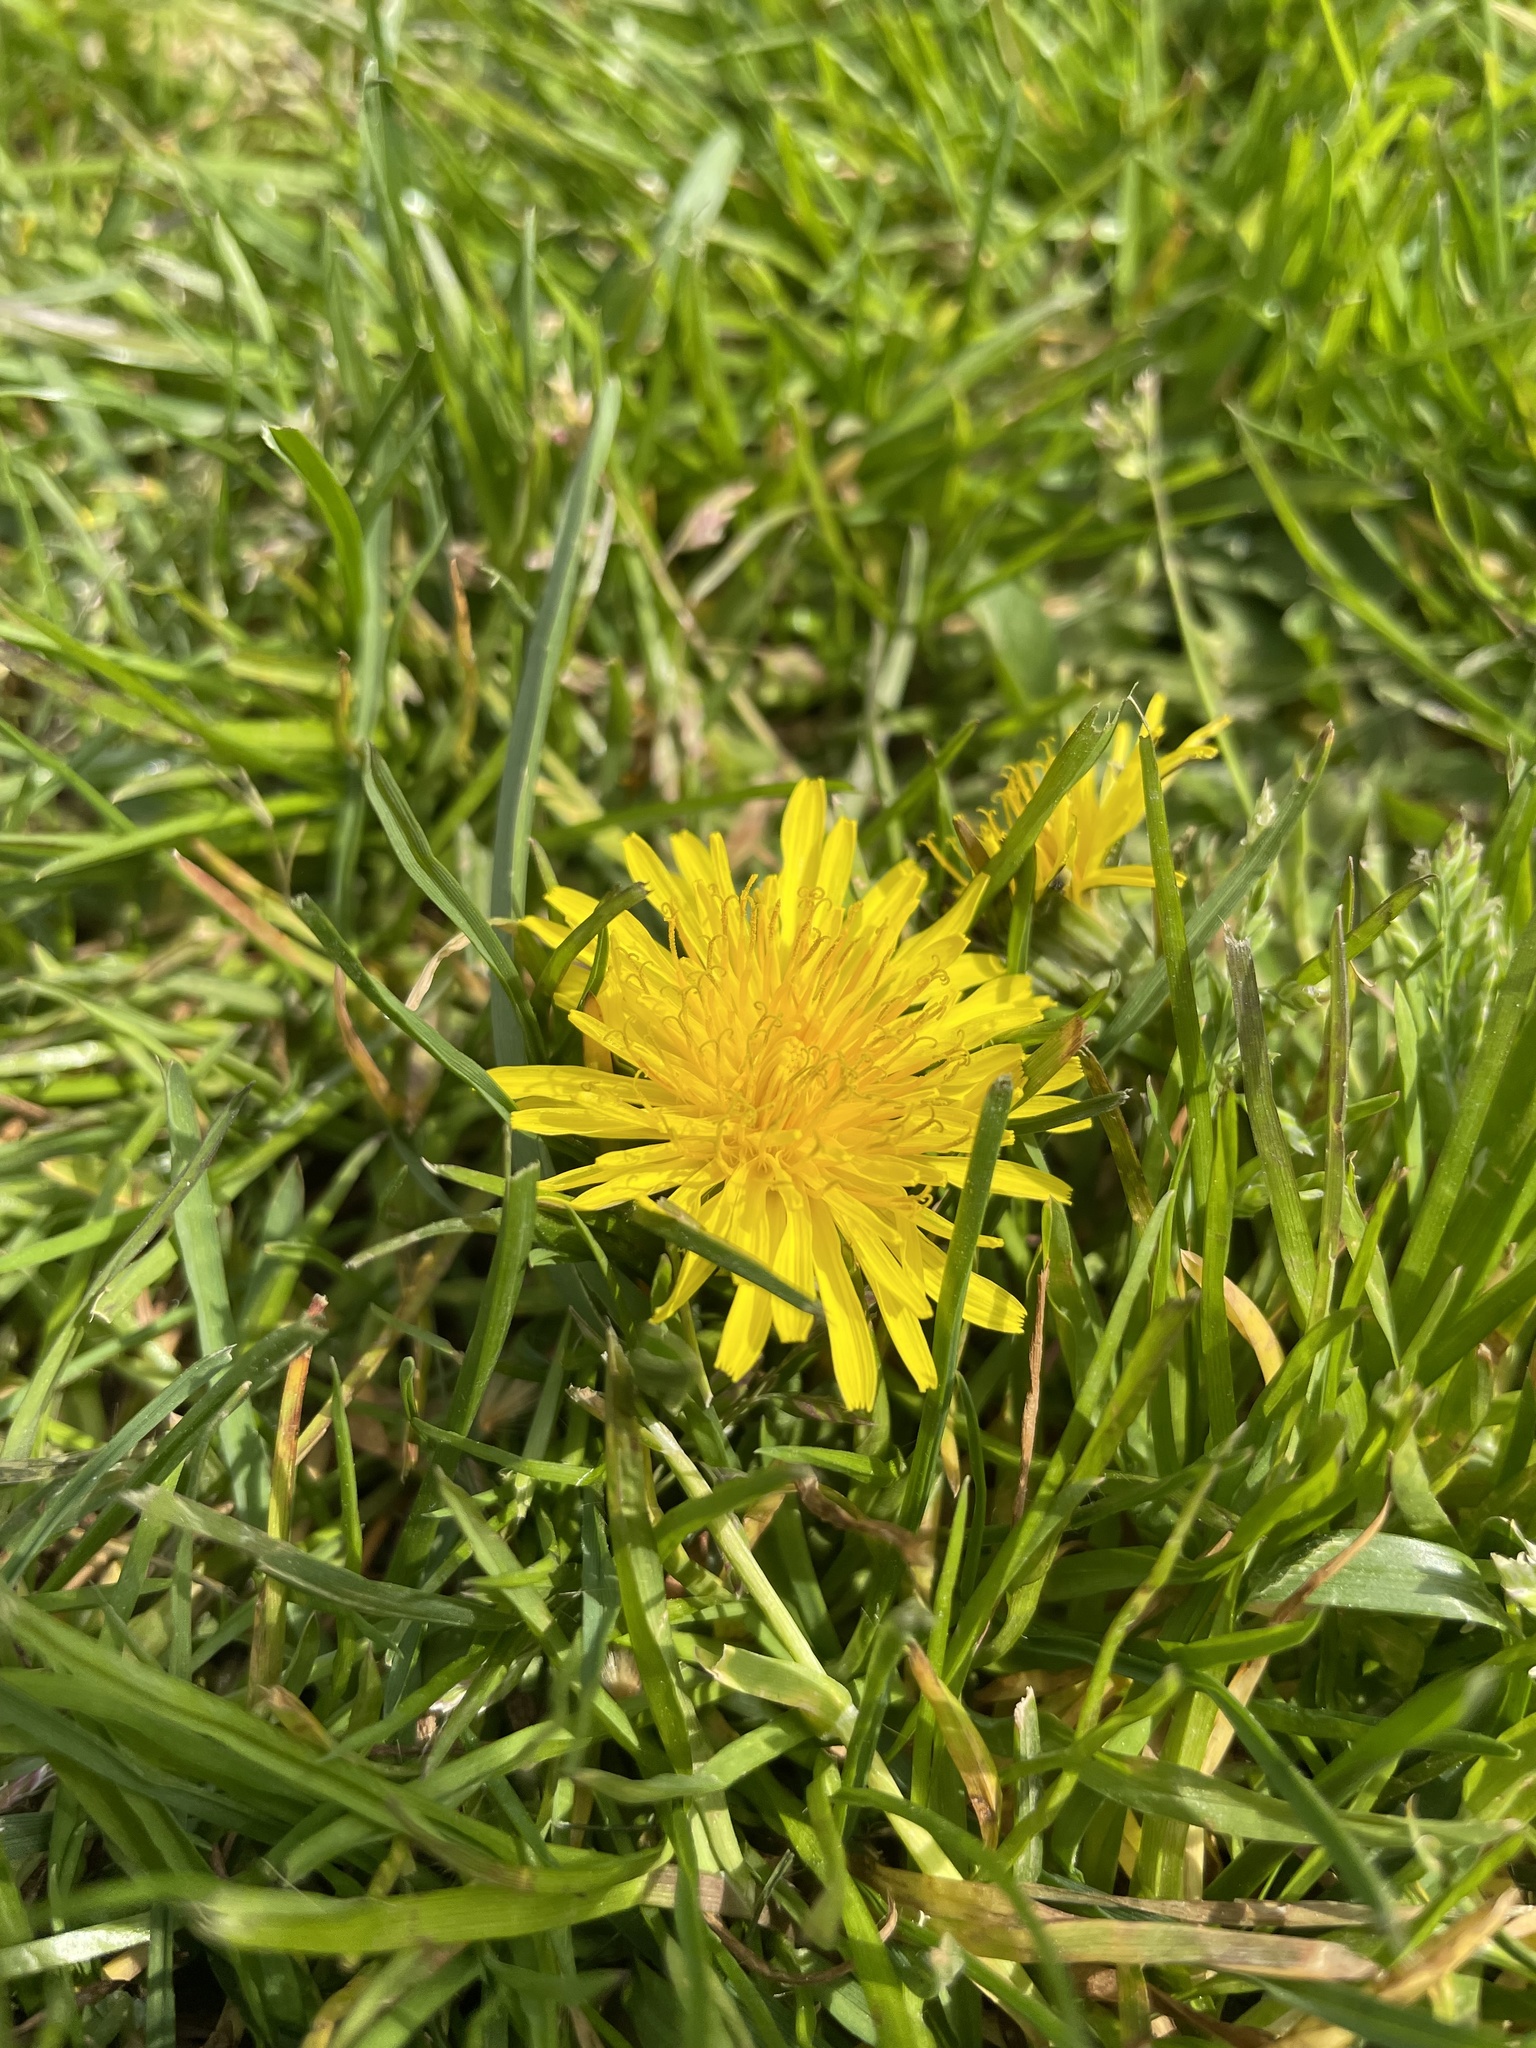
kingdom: Plantae
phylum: Tracheophyta
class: Magnoliopsida
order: Asterales
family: Asteraceae
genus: Taraxacum
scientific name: Taraxacum officinale
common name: Common dandelion
